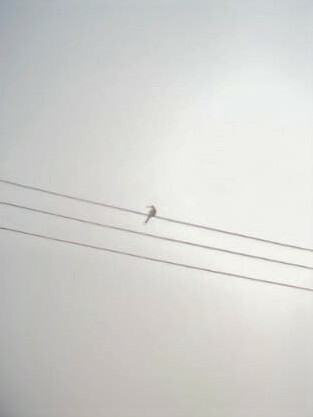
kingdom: Animalia
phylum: Chordata
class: Aves
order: Coraciiformes
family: Meropidae
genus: Merops
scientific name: Merops apiaster
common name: European bee-eater
